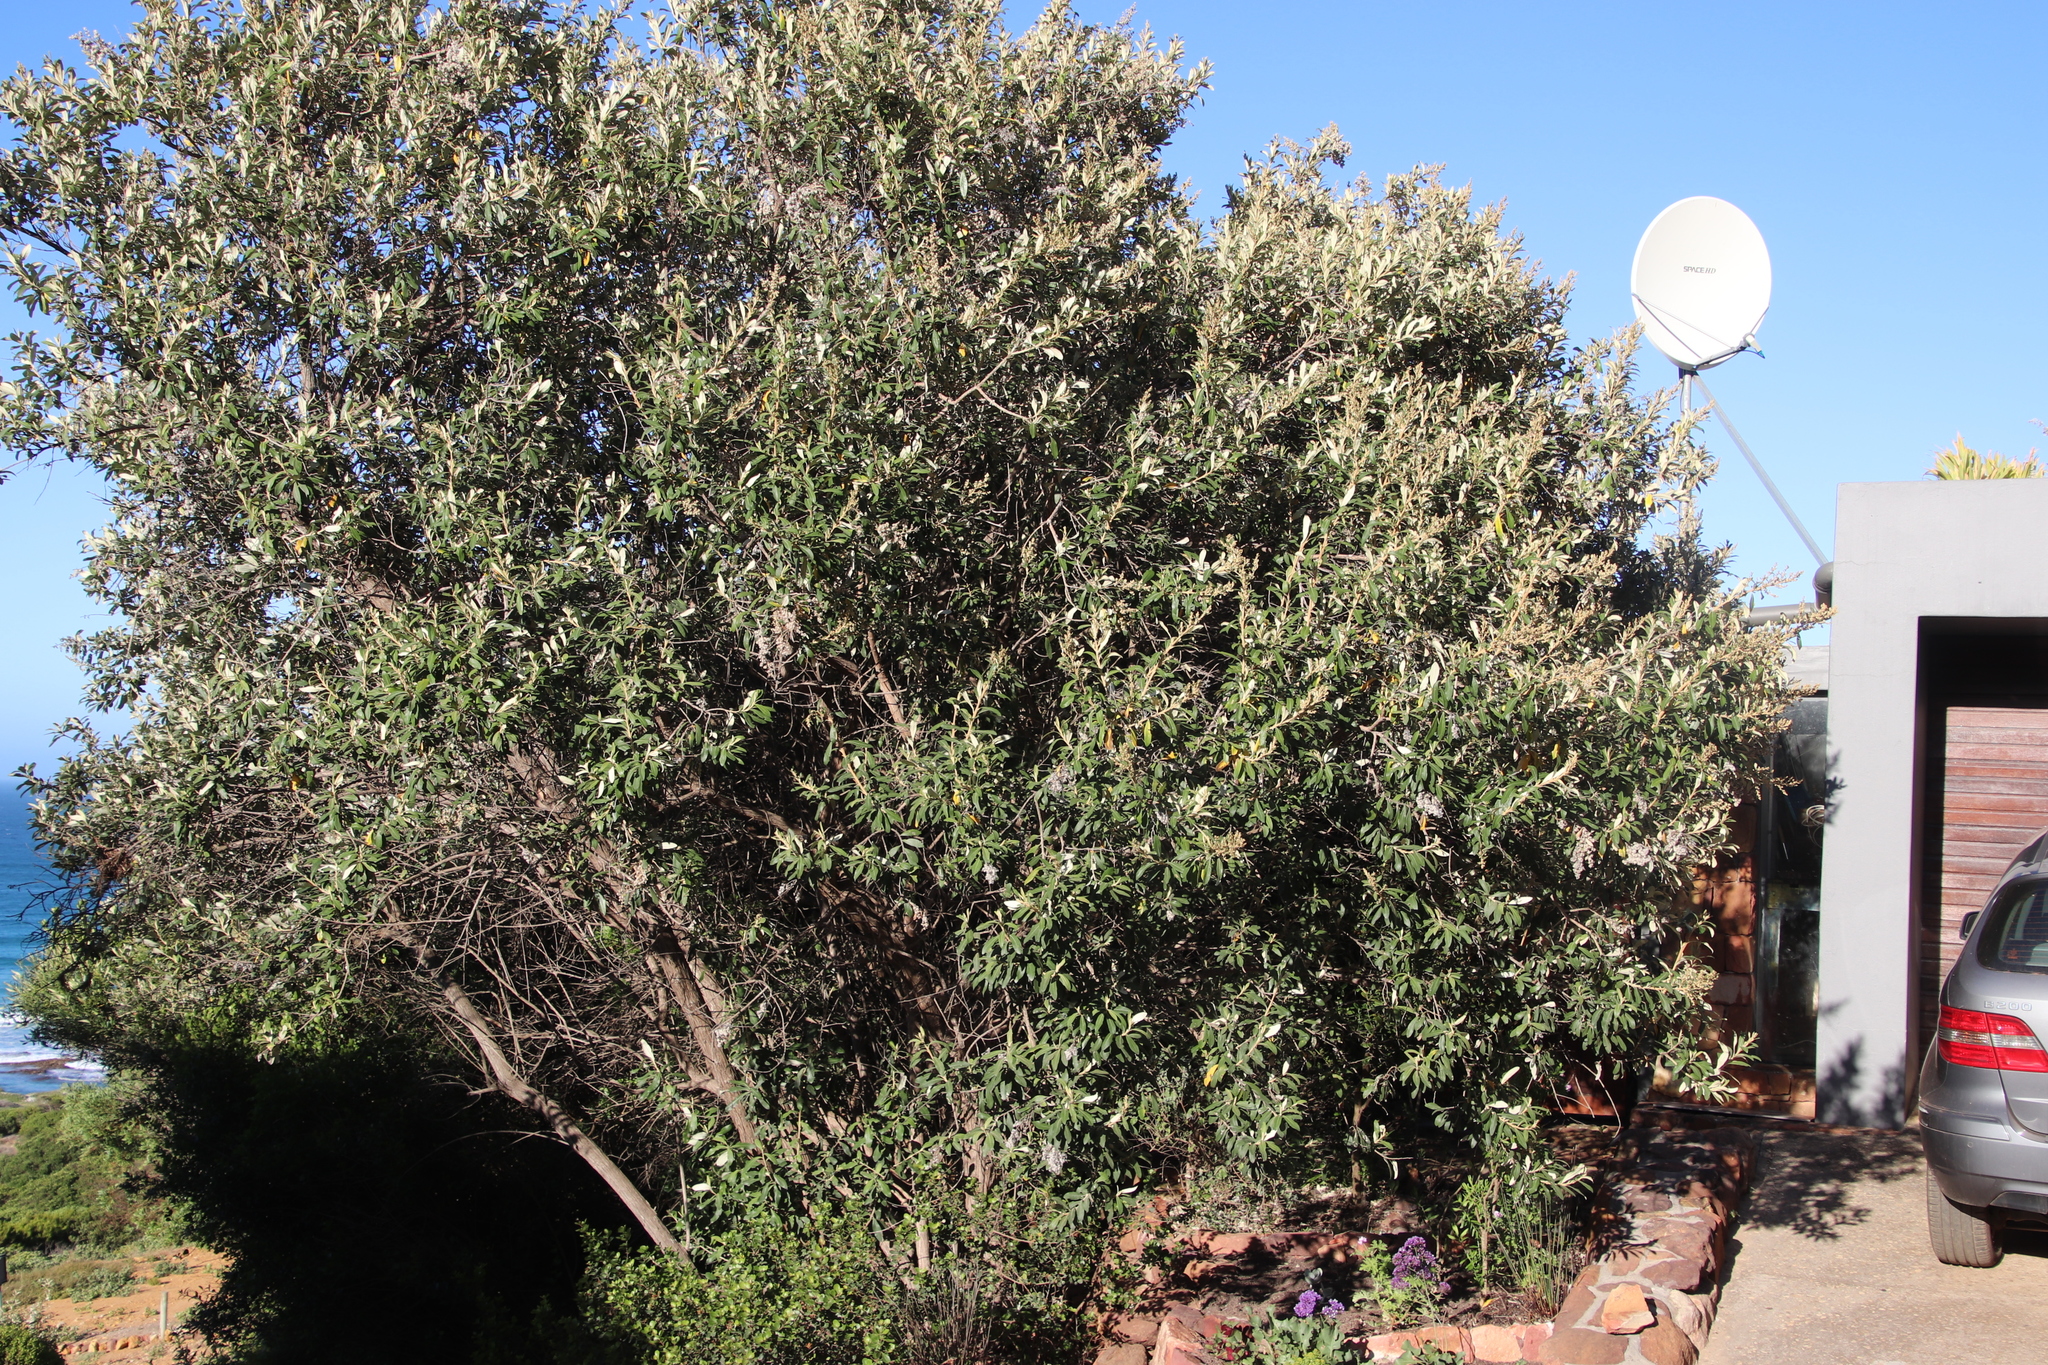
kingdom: Plantae
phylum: Tracheophyta
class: Magnoliopsida
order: Asterales
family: Asteraceae
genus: Tarchonanthus
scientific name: Tarchonanthus littoralis
